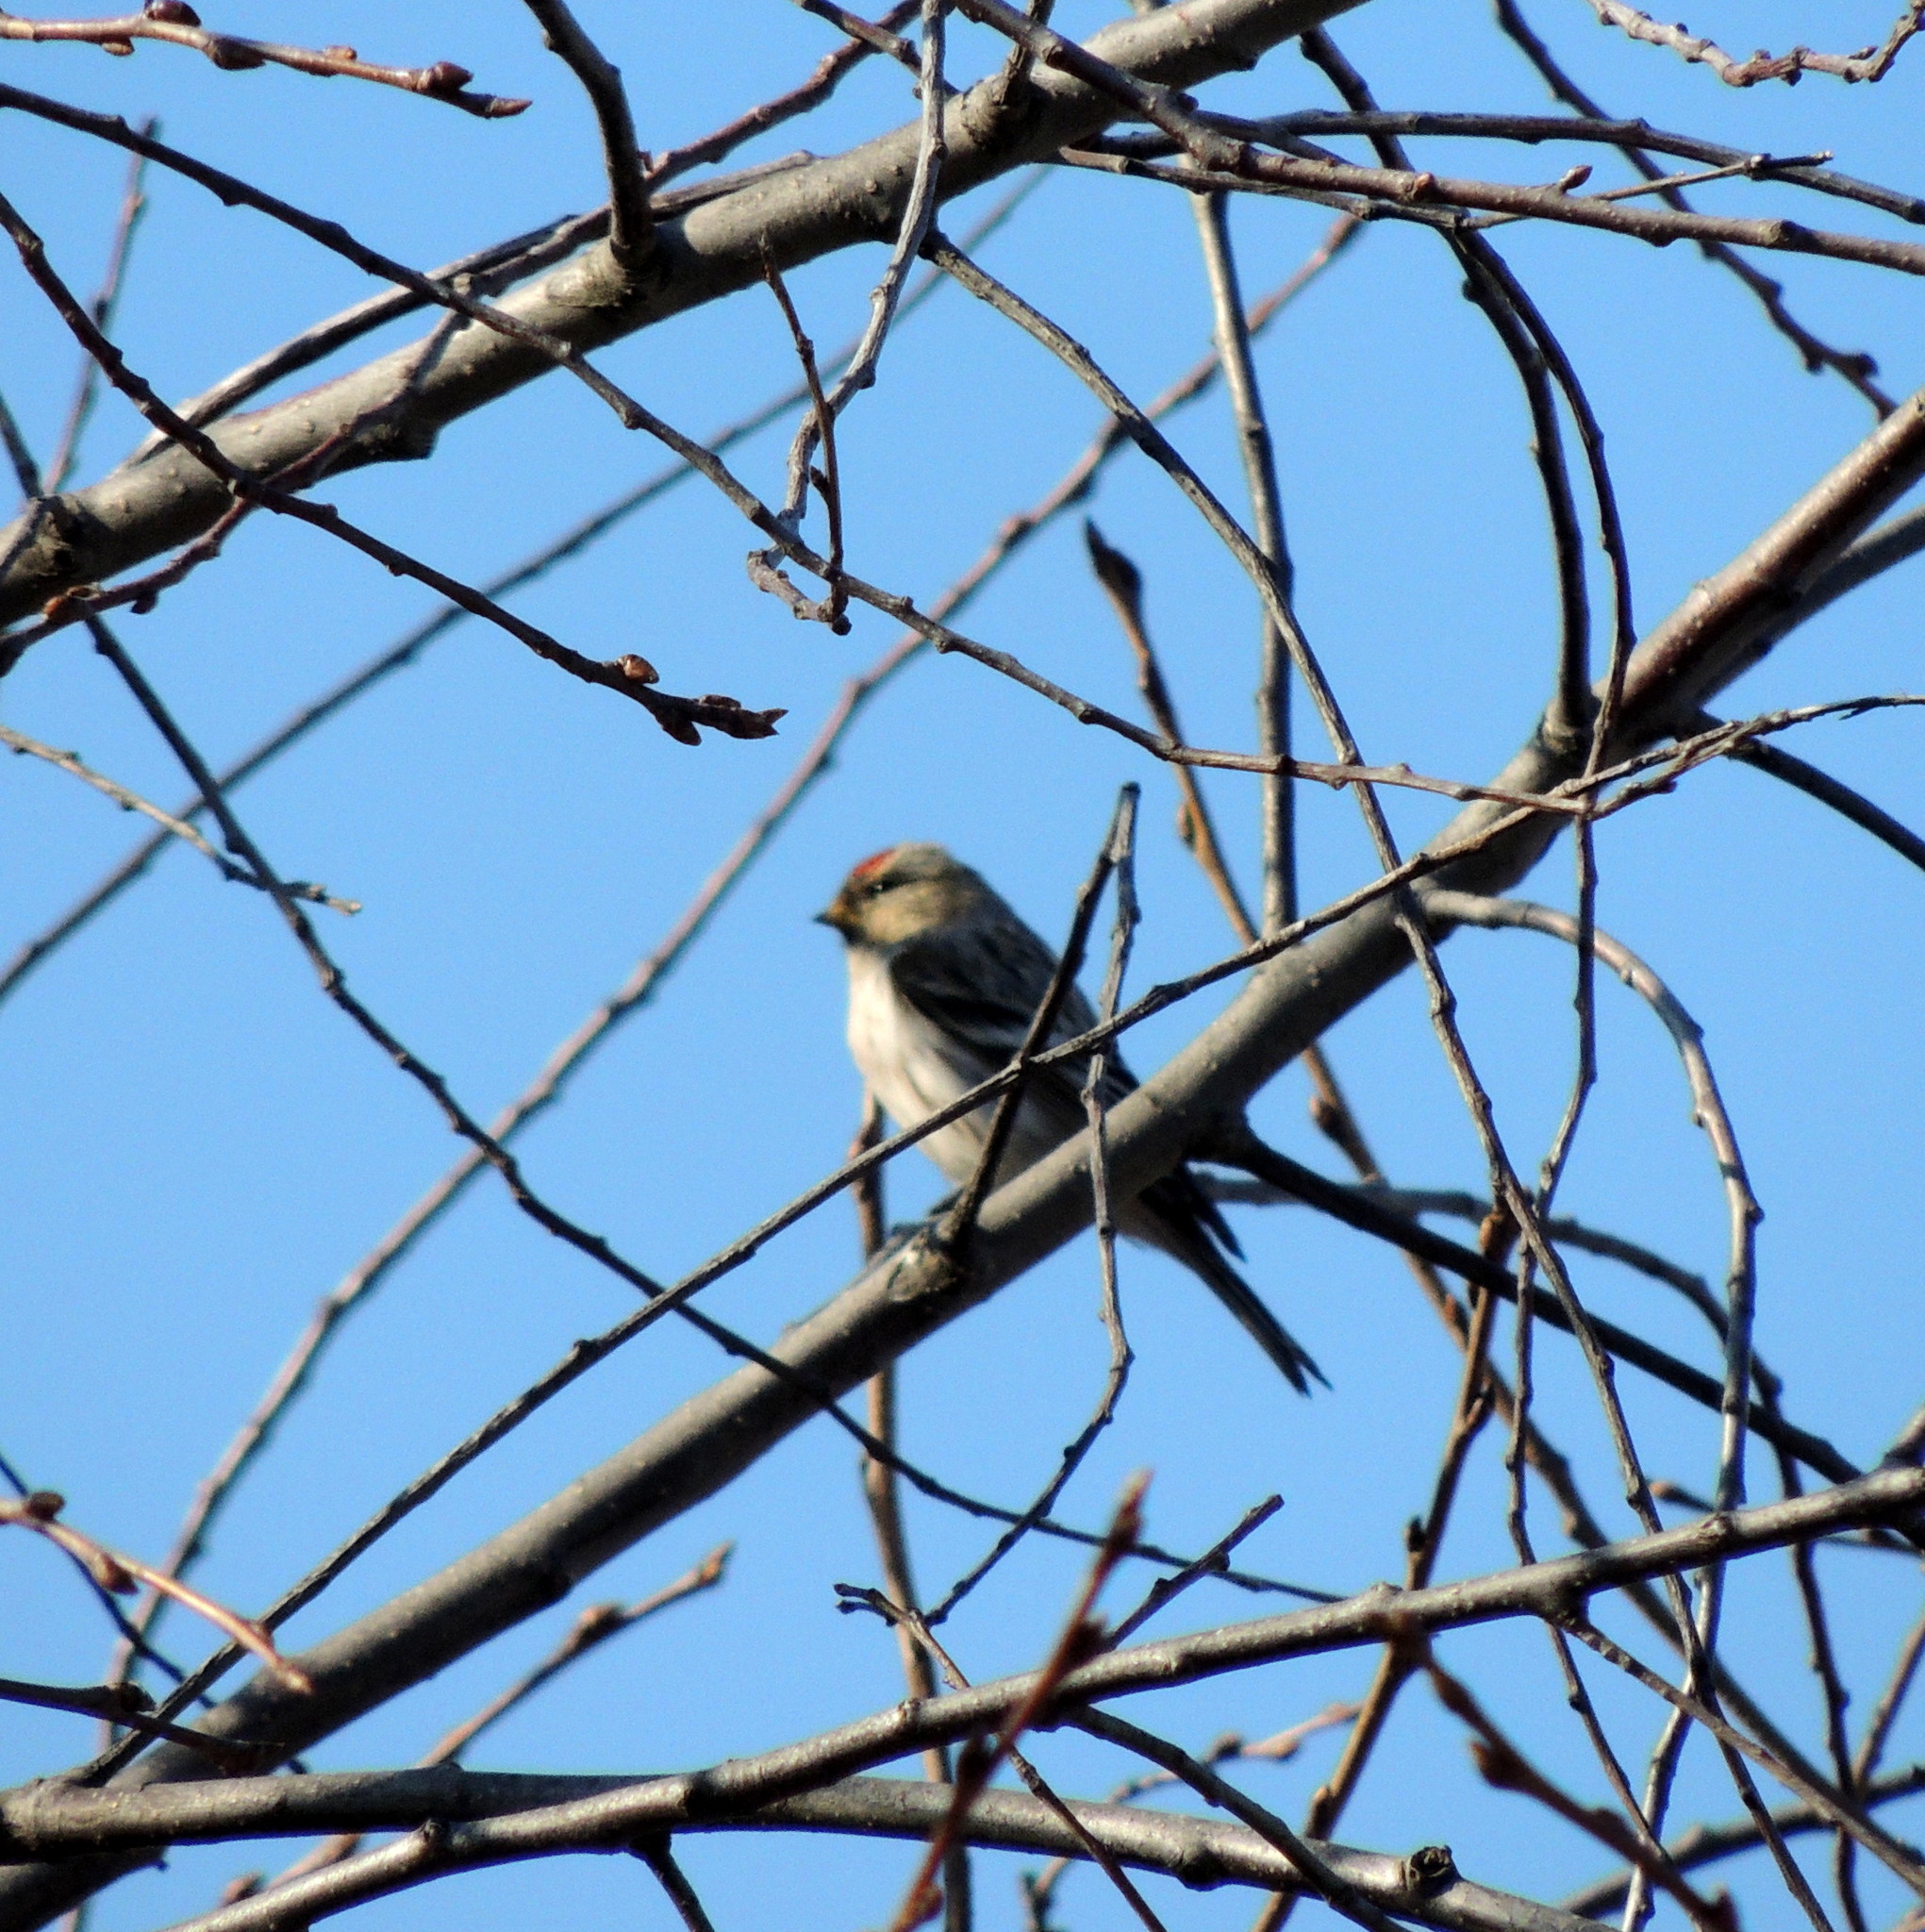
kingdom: Animalia
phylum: Chordata
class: Aves
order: Passeriformes
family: Fringillidae
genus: Acanthis
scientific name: Acanthis flammea
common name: Common redpoll
